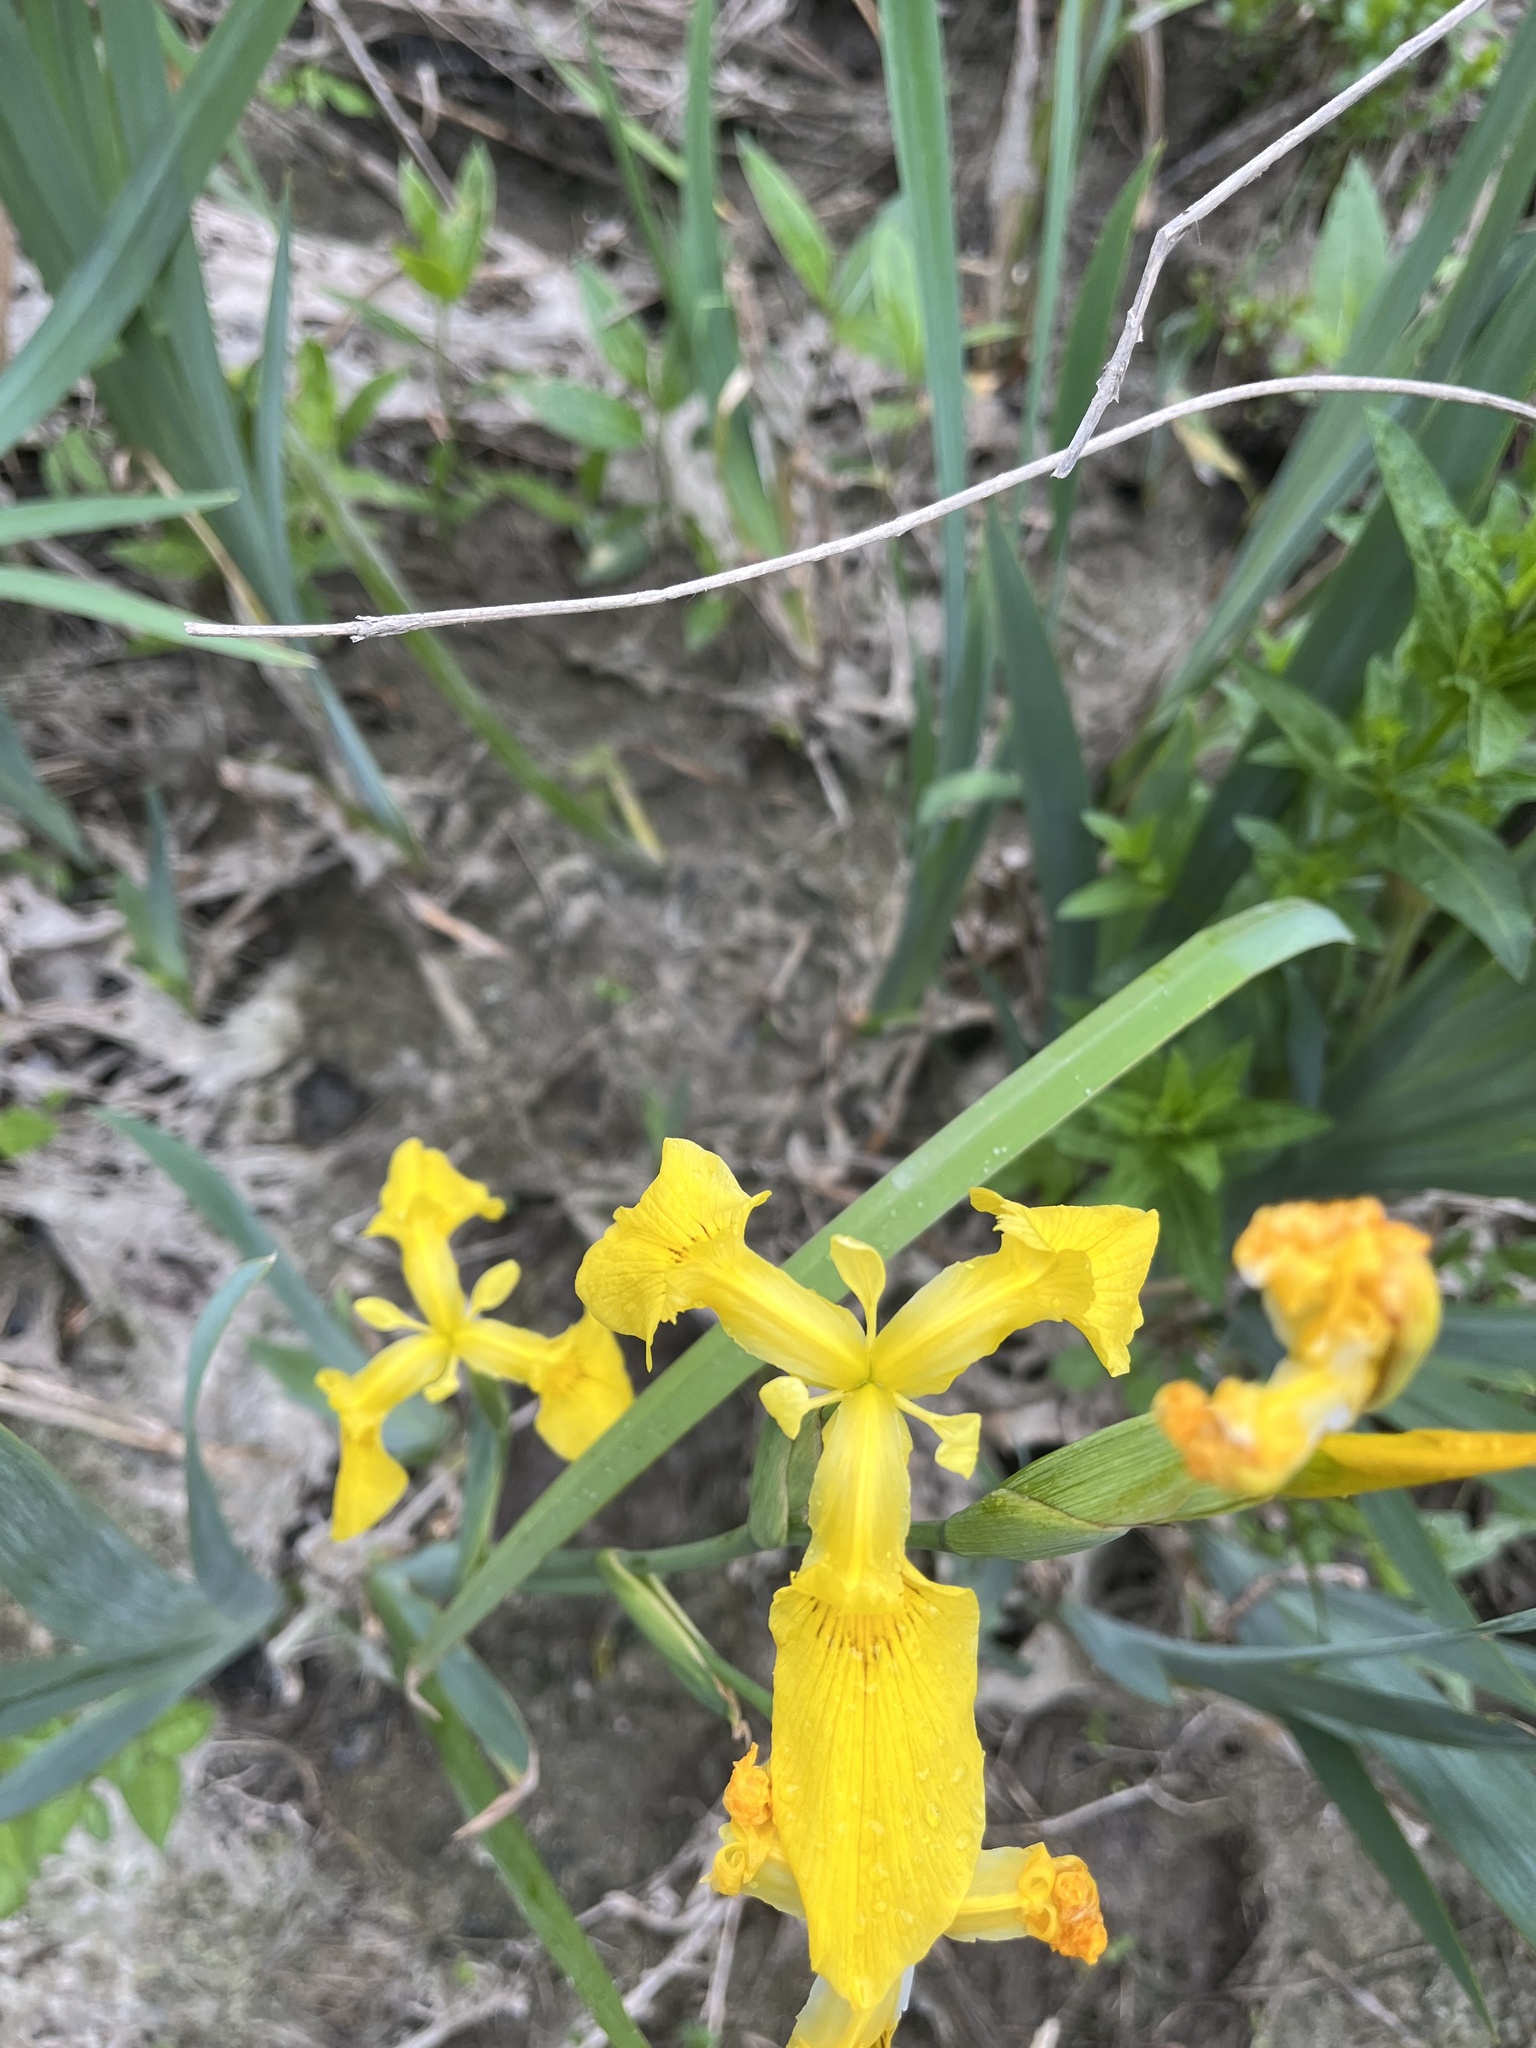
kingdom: Plantae
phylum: Tracheophyta
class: Liliopsida
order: Asparagales
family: Iridaceae
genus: Iris
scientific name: Iris pseudacorus
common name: Yellow flag
